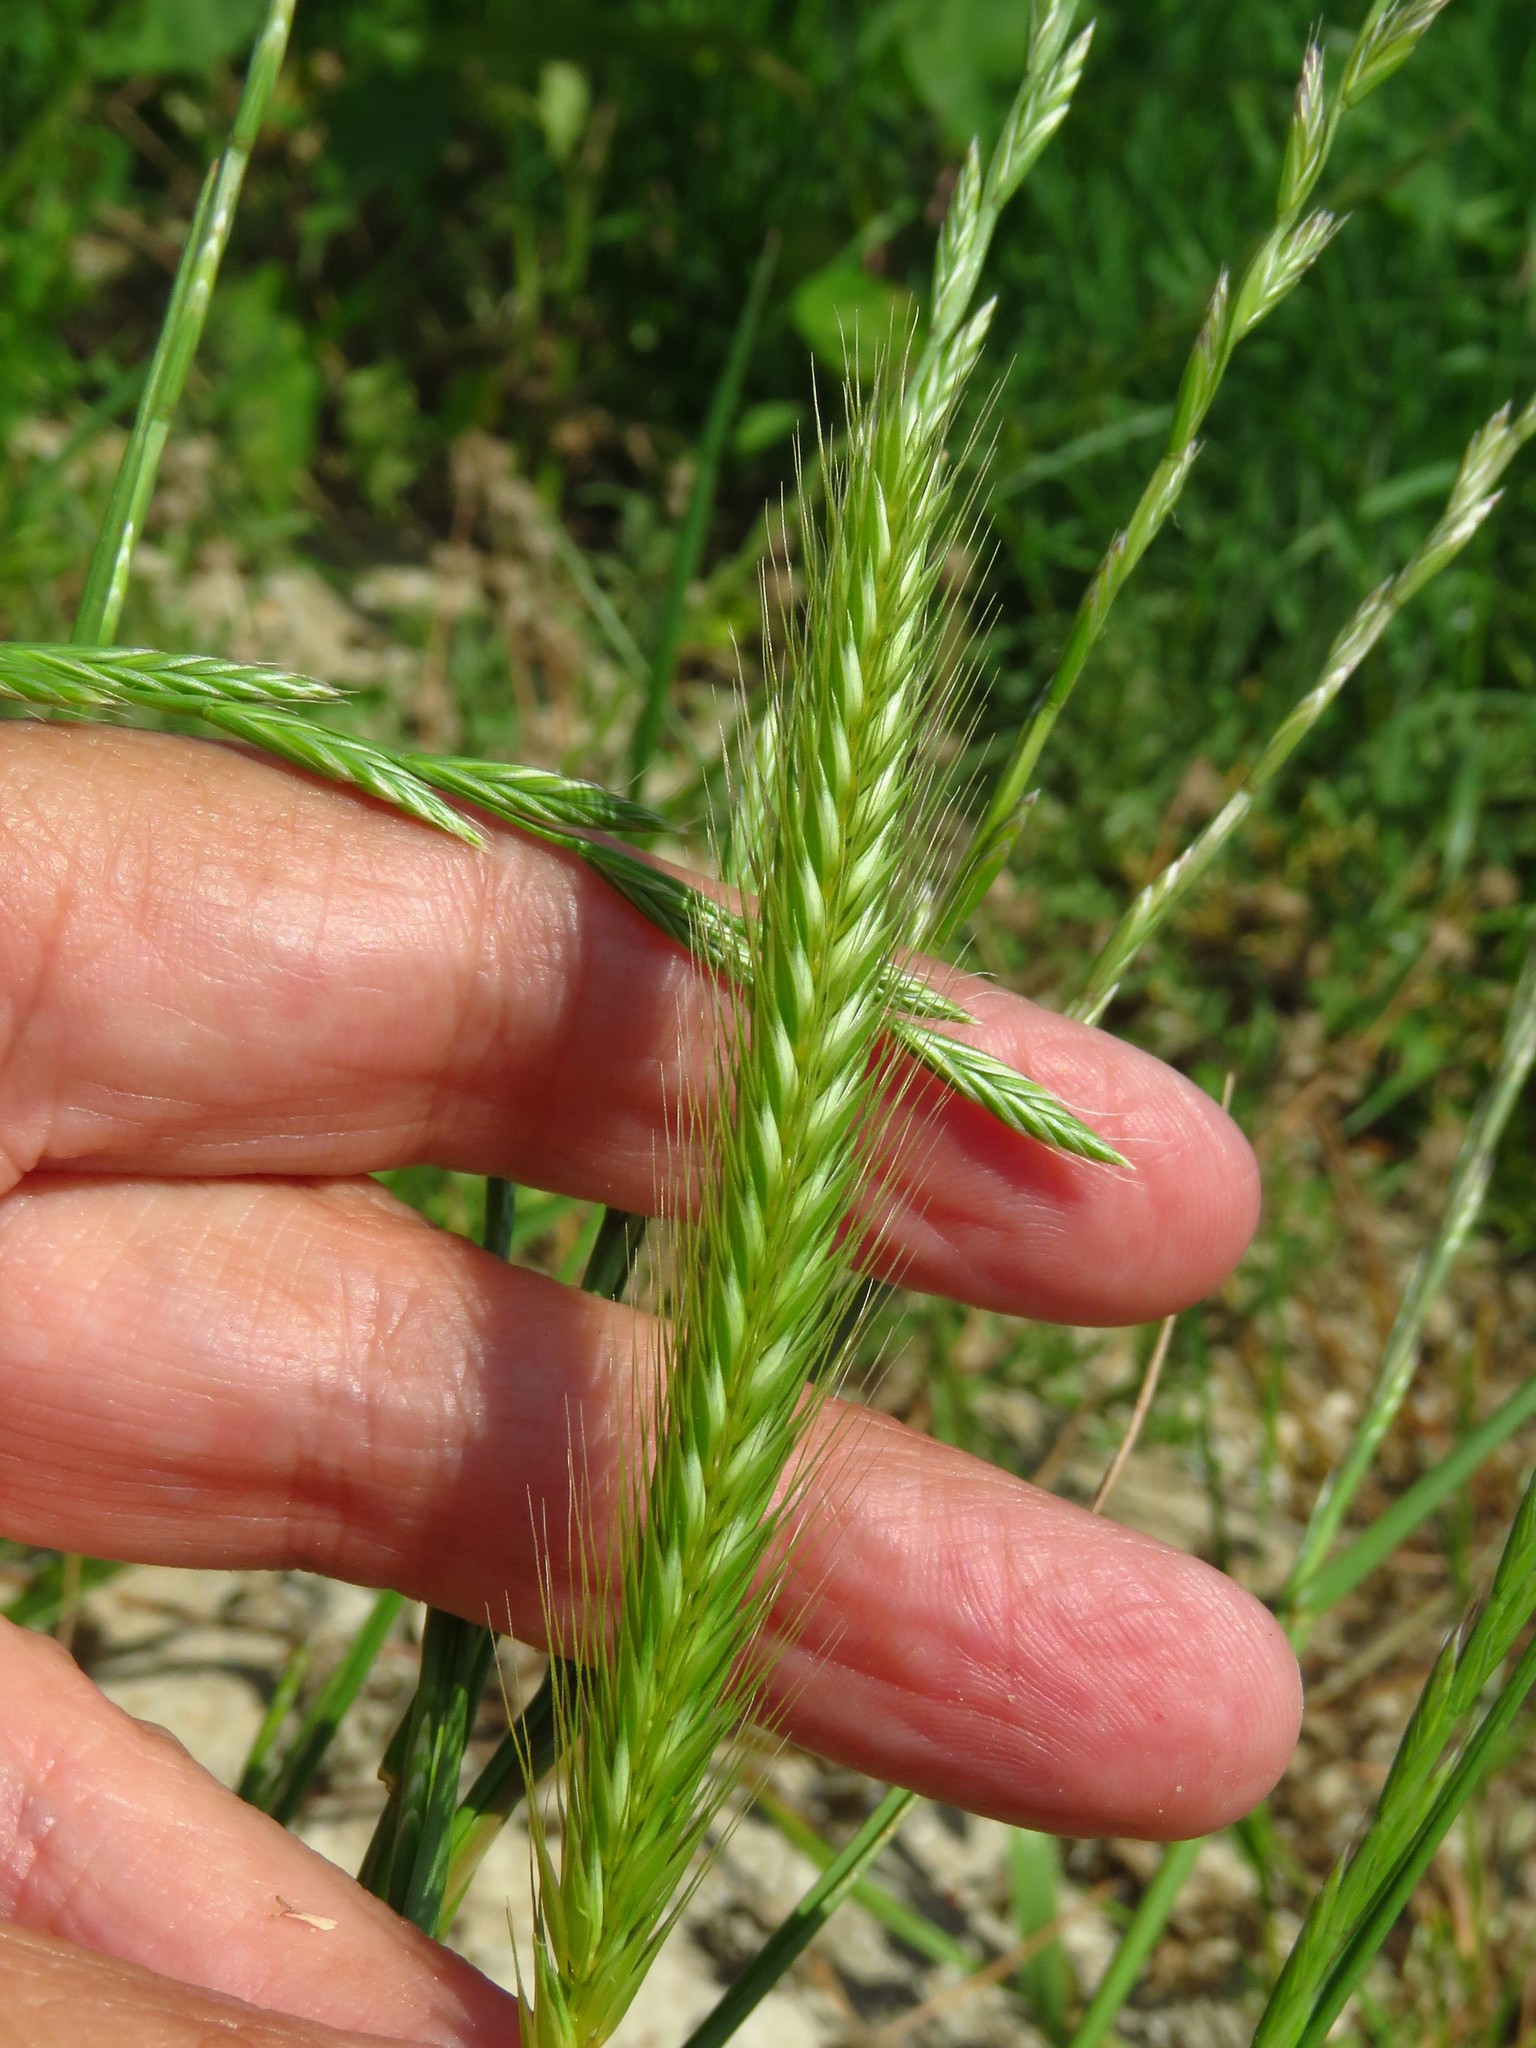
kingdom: Plantae
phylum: Tracheophyta
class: Liliopsida
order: Poales
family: Poaceae
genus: Hordeum
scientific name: Hordeum pusillum
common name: Little barley
